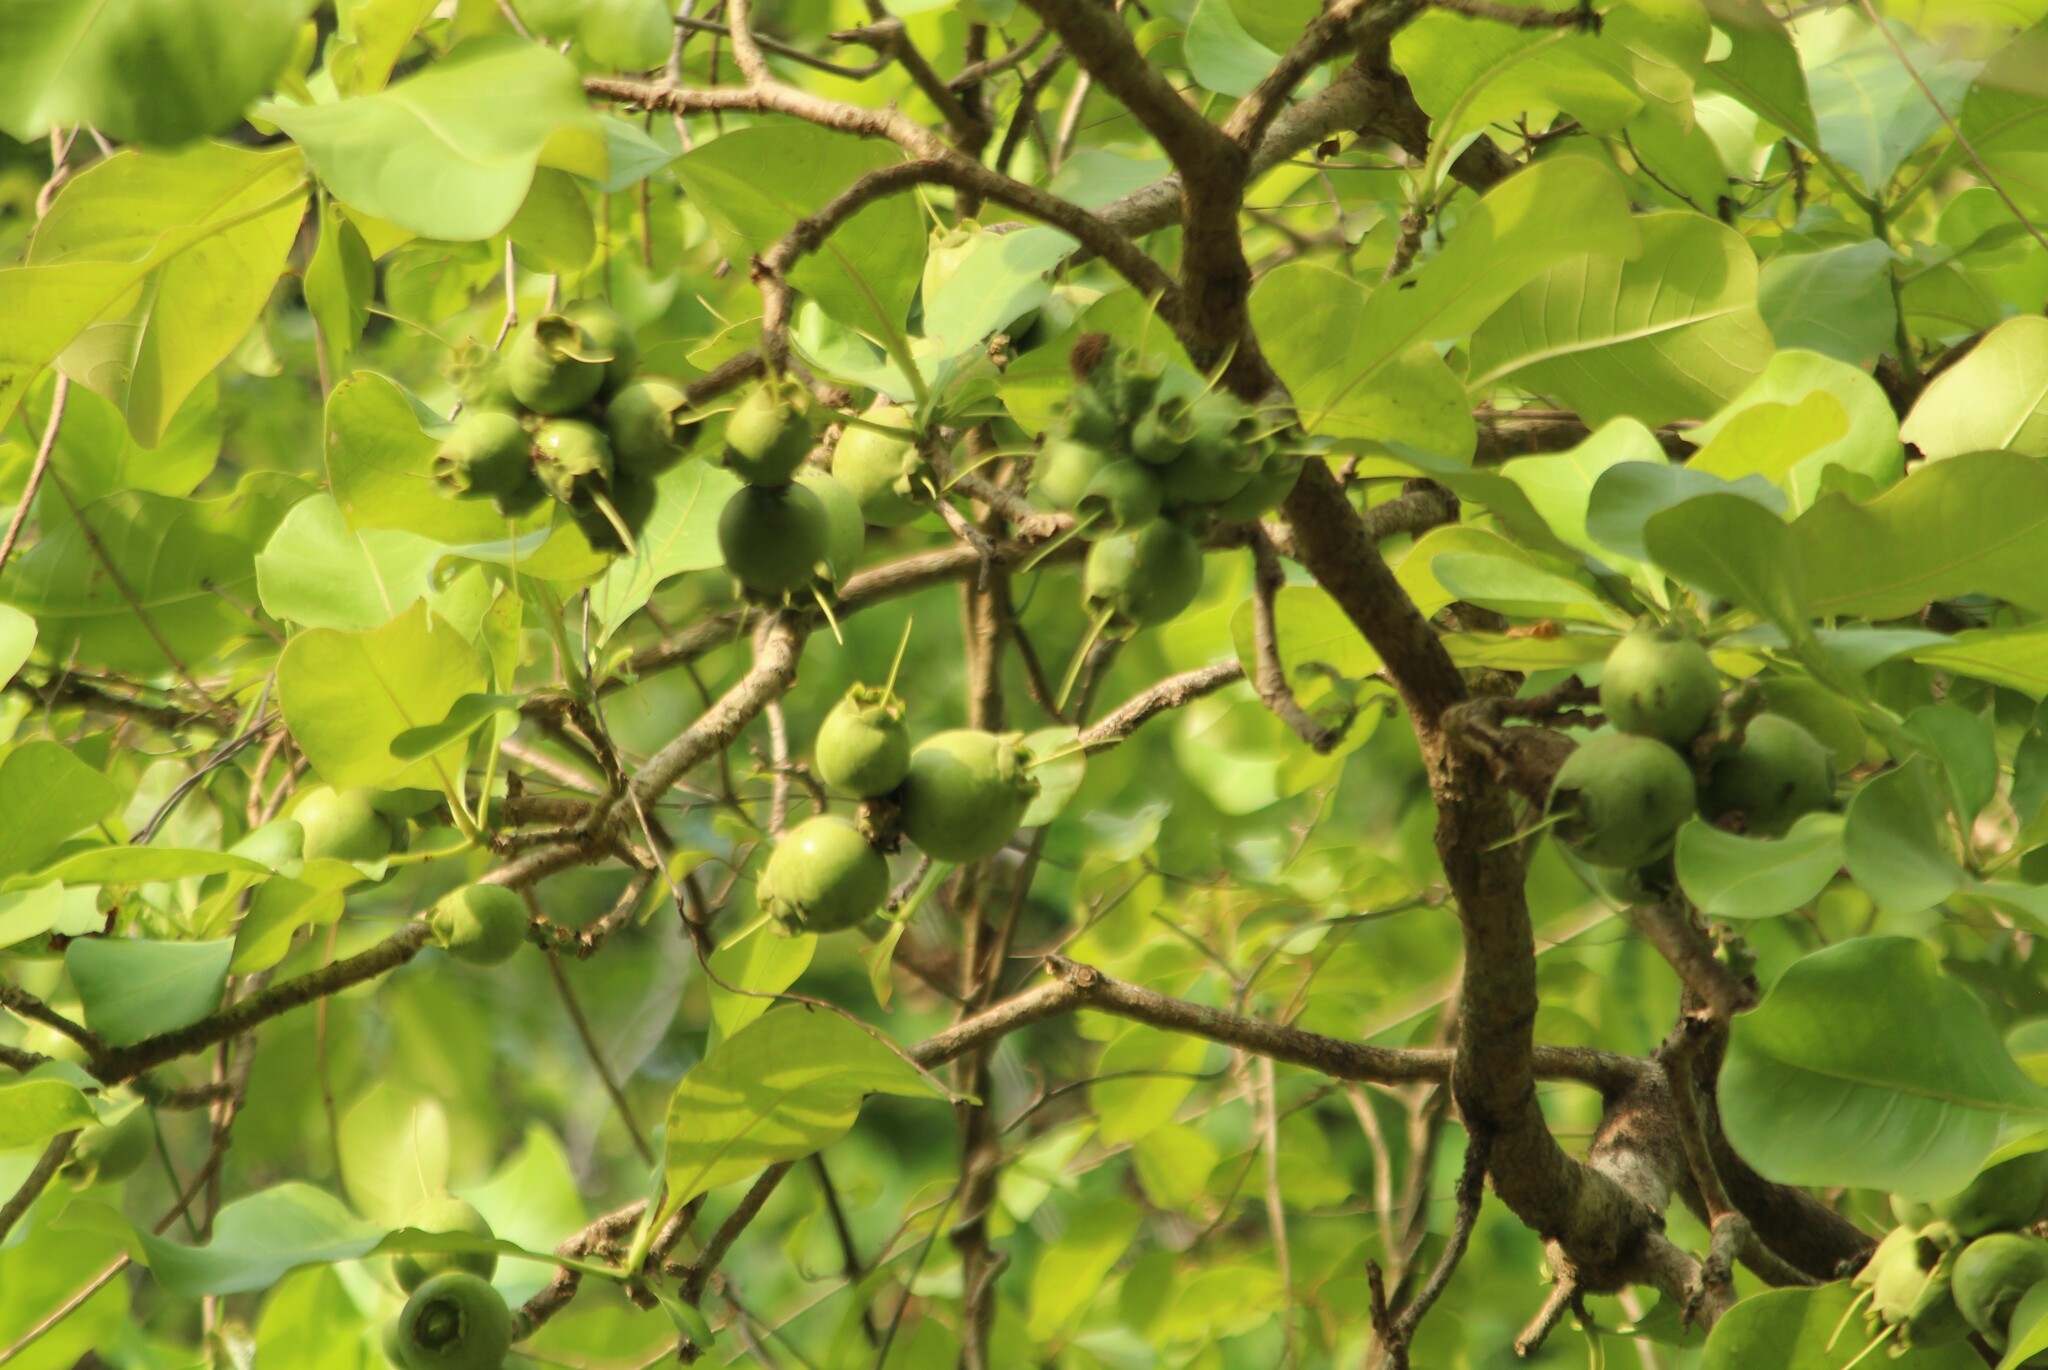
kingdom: Plantae
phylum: Tracheophyta
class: Magnoliopsida
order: Ericales
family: Lecythidaceae
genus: Careya
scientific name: Careya arborea
